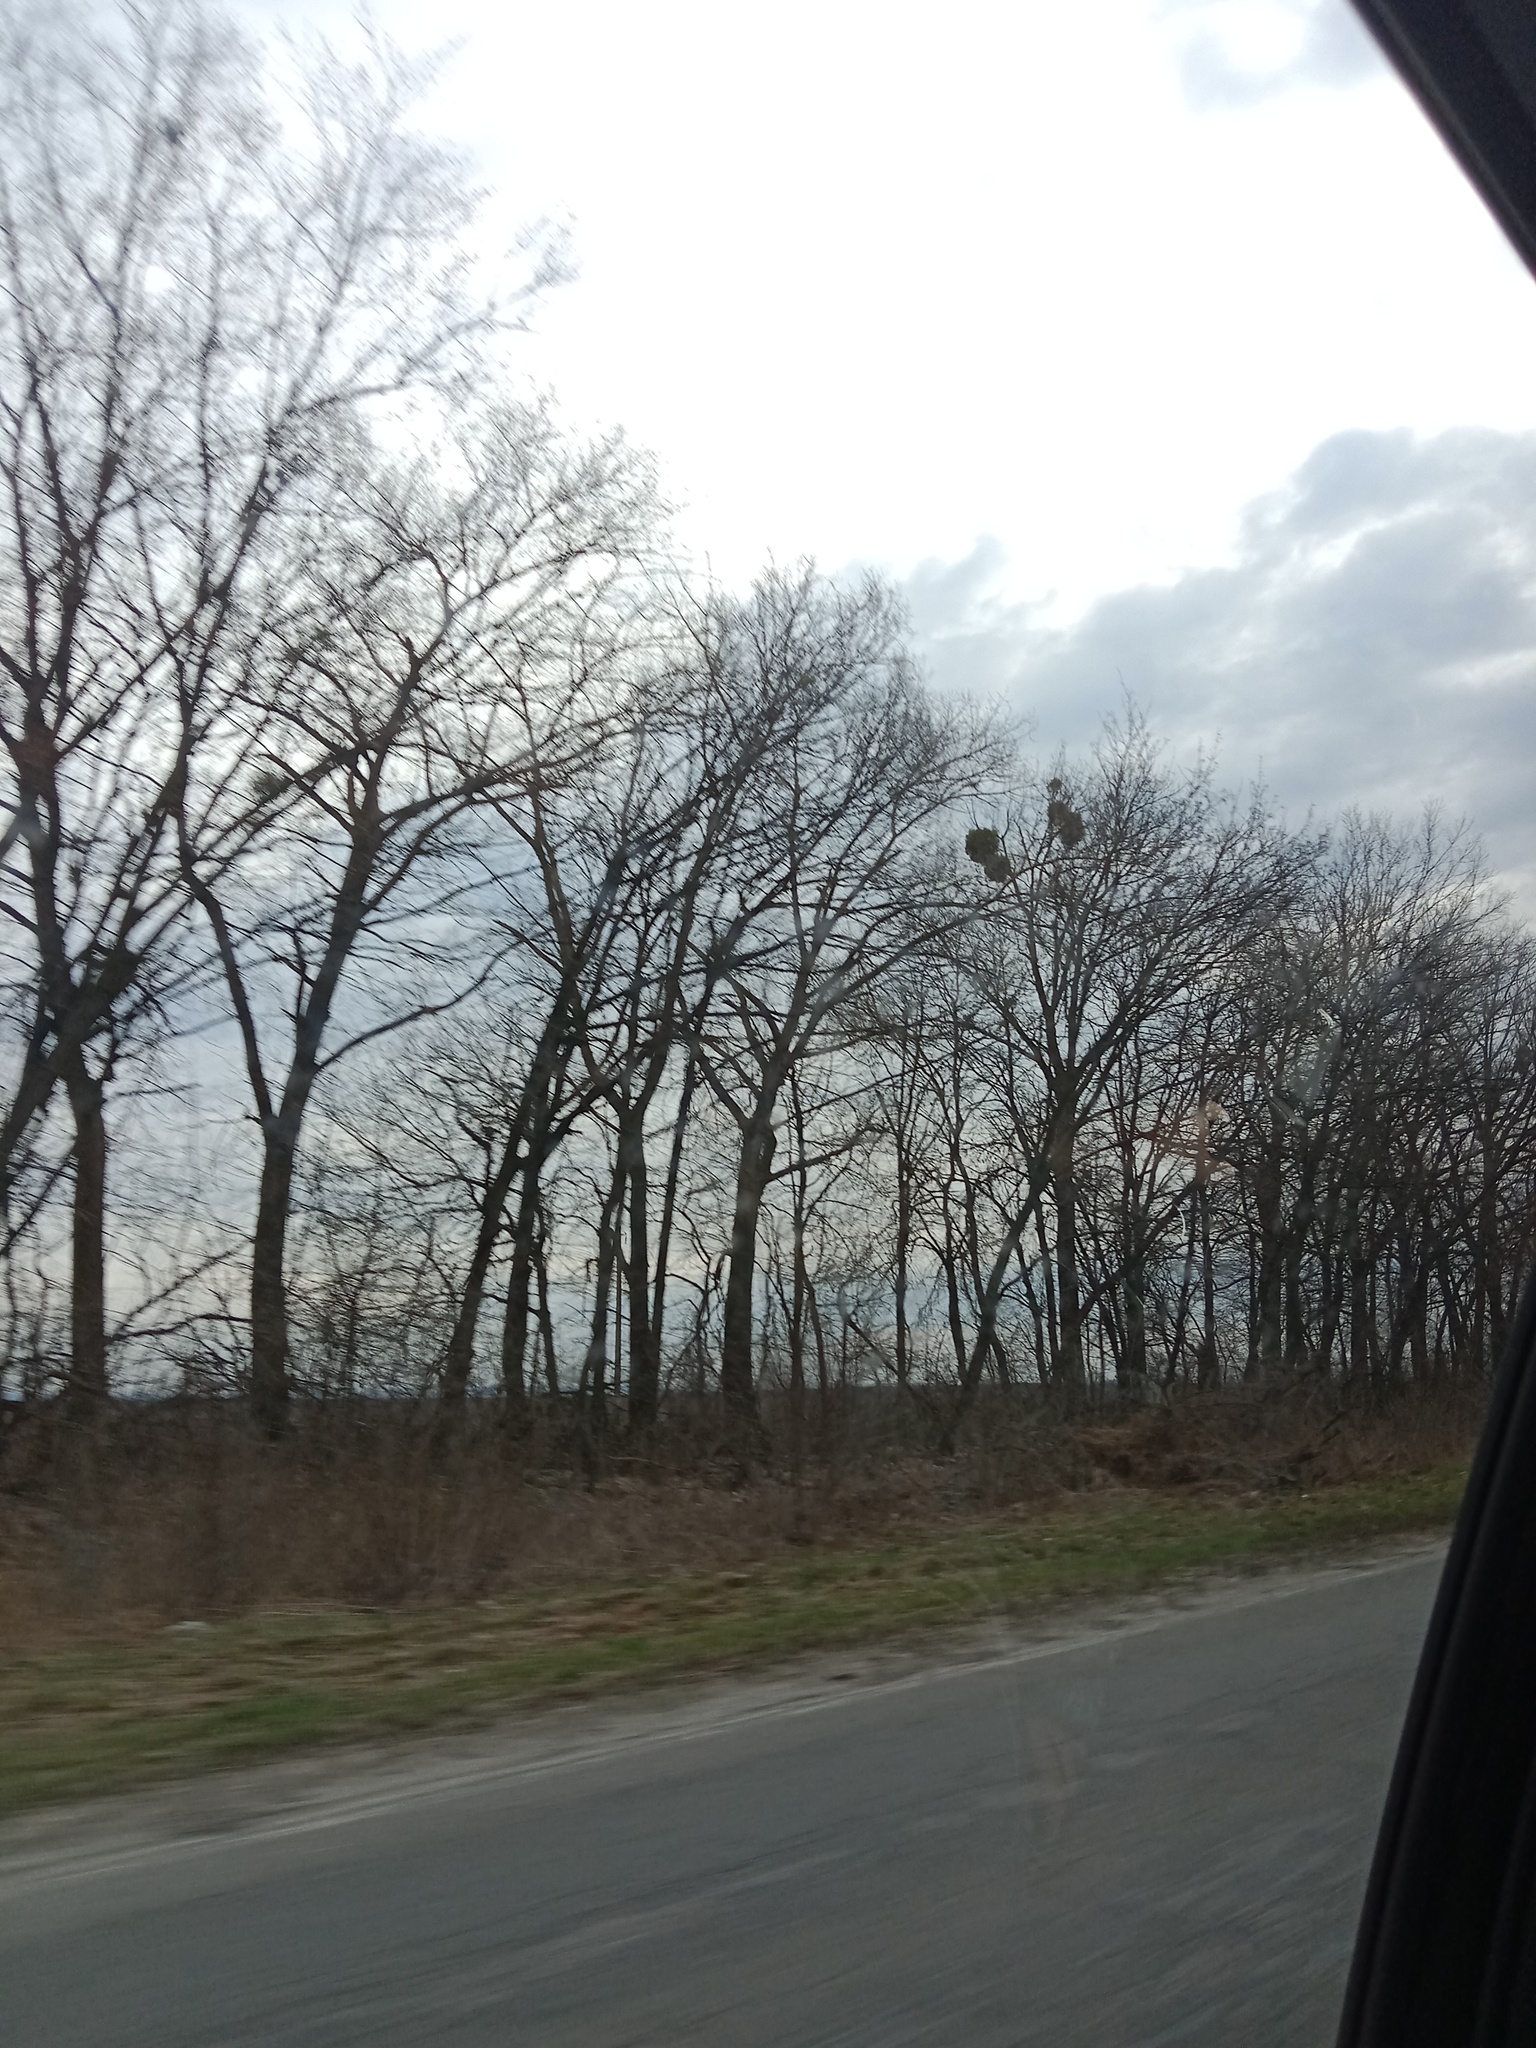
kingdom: Plantae
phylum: Tracheophyta
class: Magnoliopsida
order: Santalales
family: Viscaceae
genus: Viscum
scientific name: Viscum album
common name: Mistletoe
